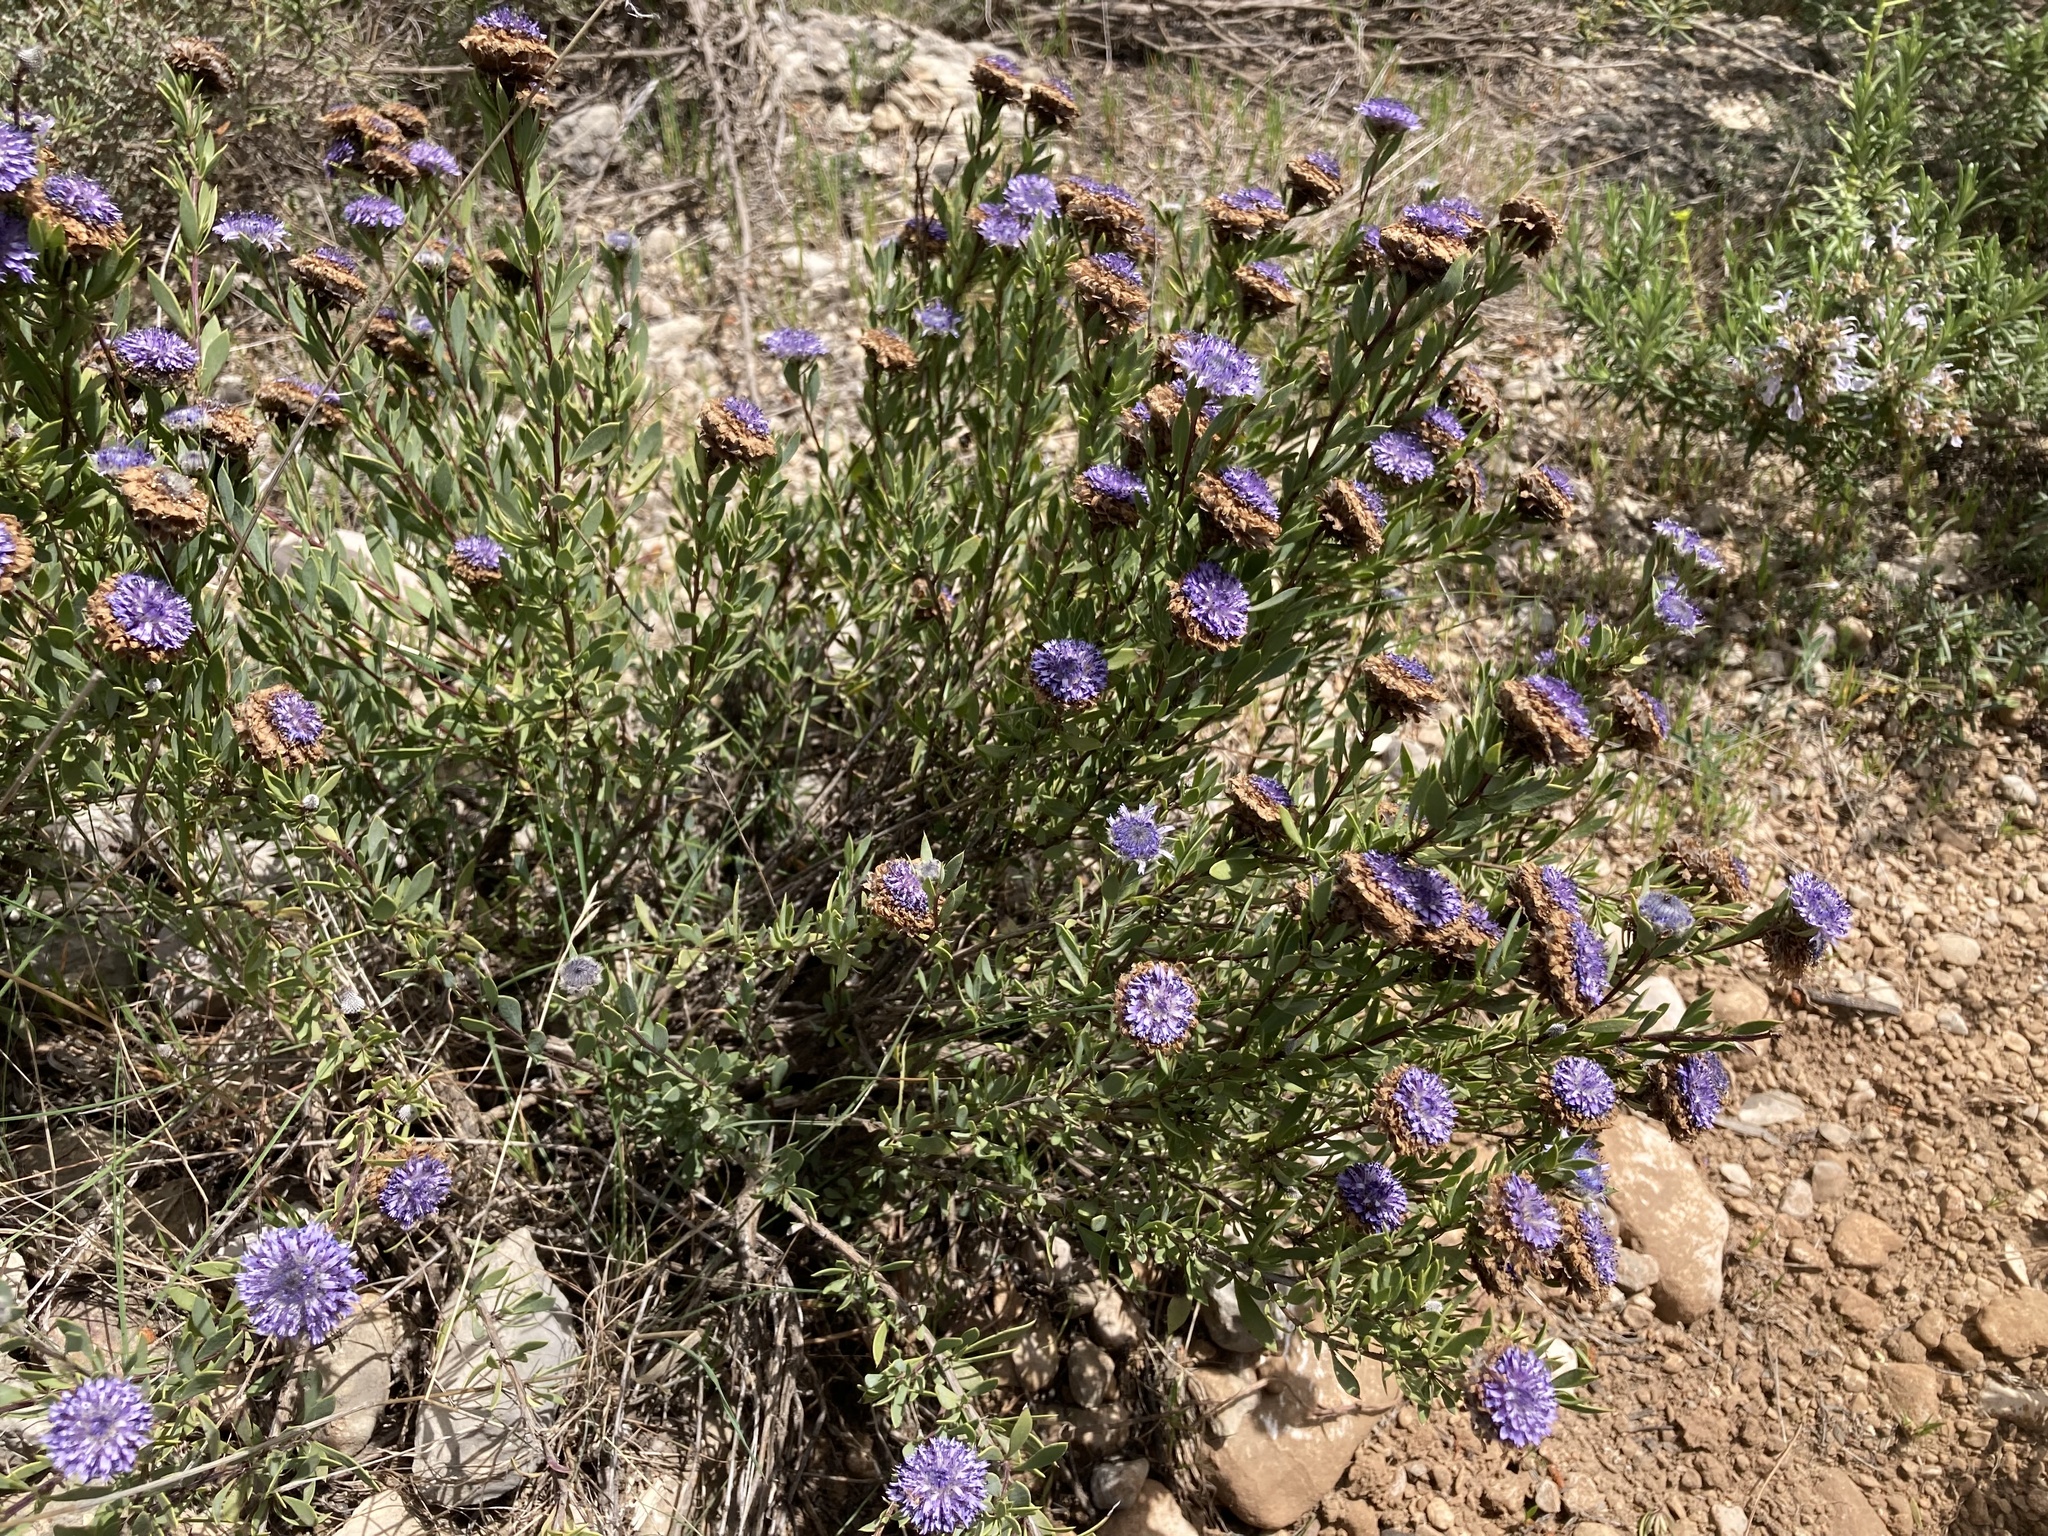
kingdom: Plantae
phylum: Tracheophyta
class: Magnoliopsida
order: Lamiales
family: Plantaginaceae
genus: Globularia
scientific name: Globularia alypum
